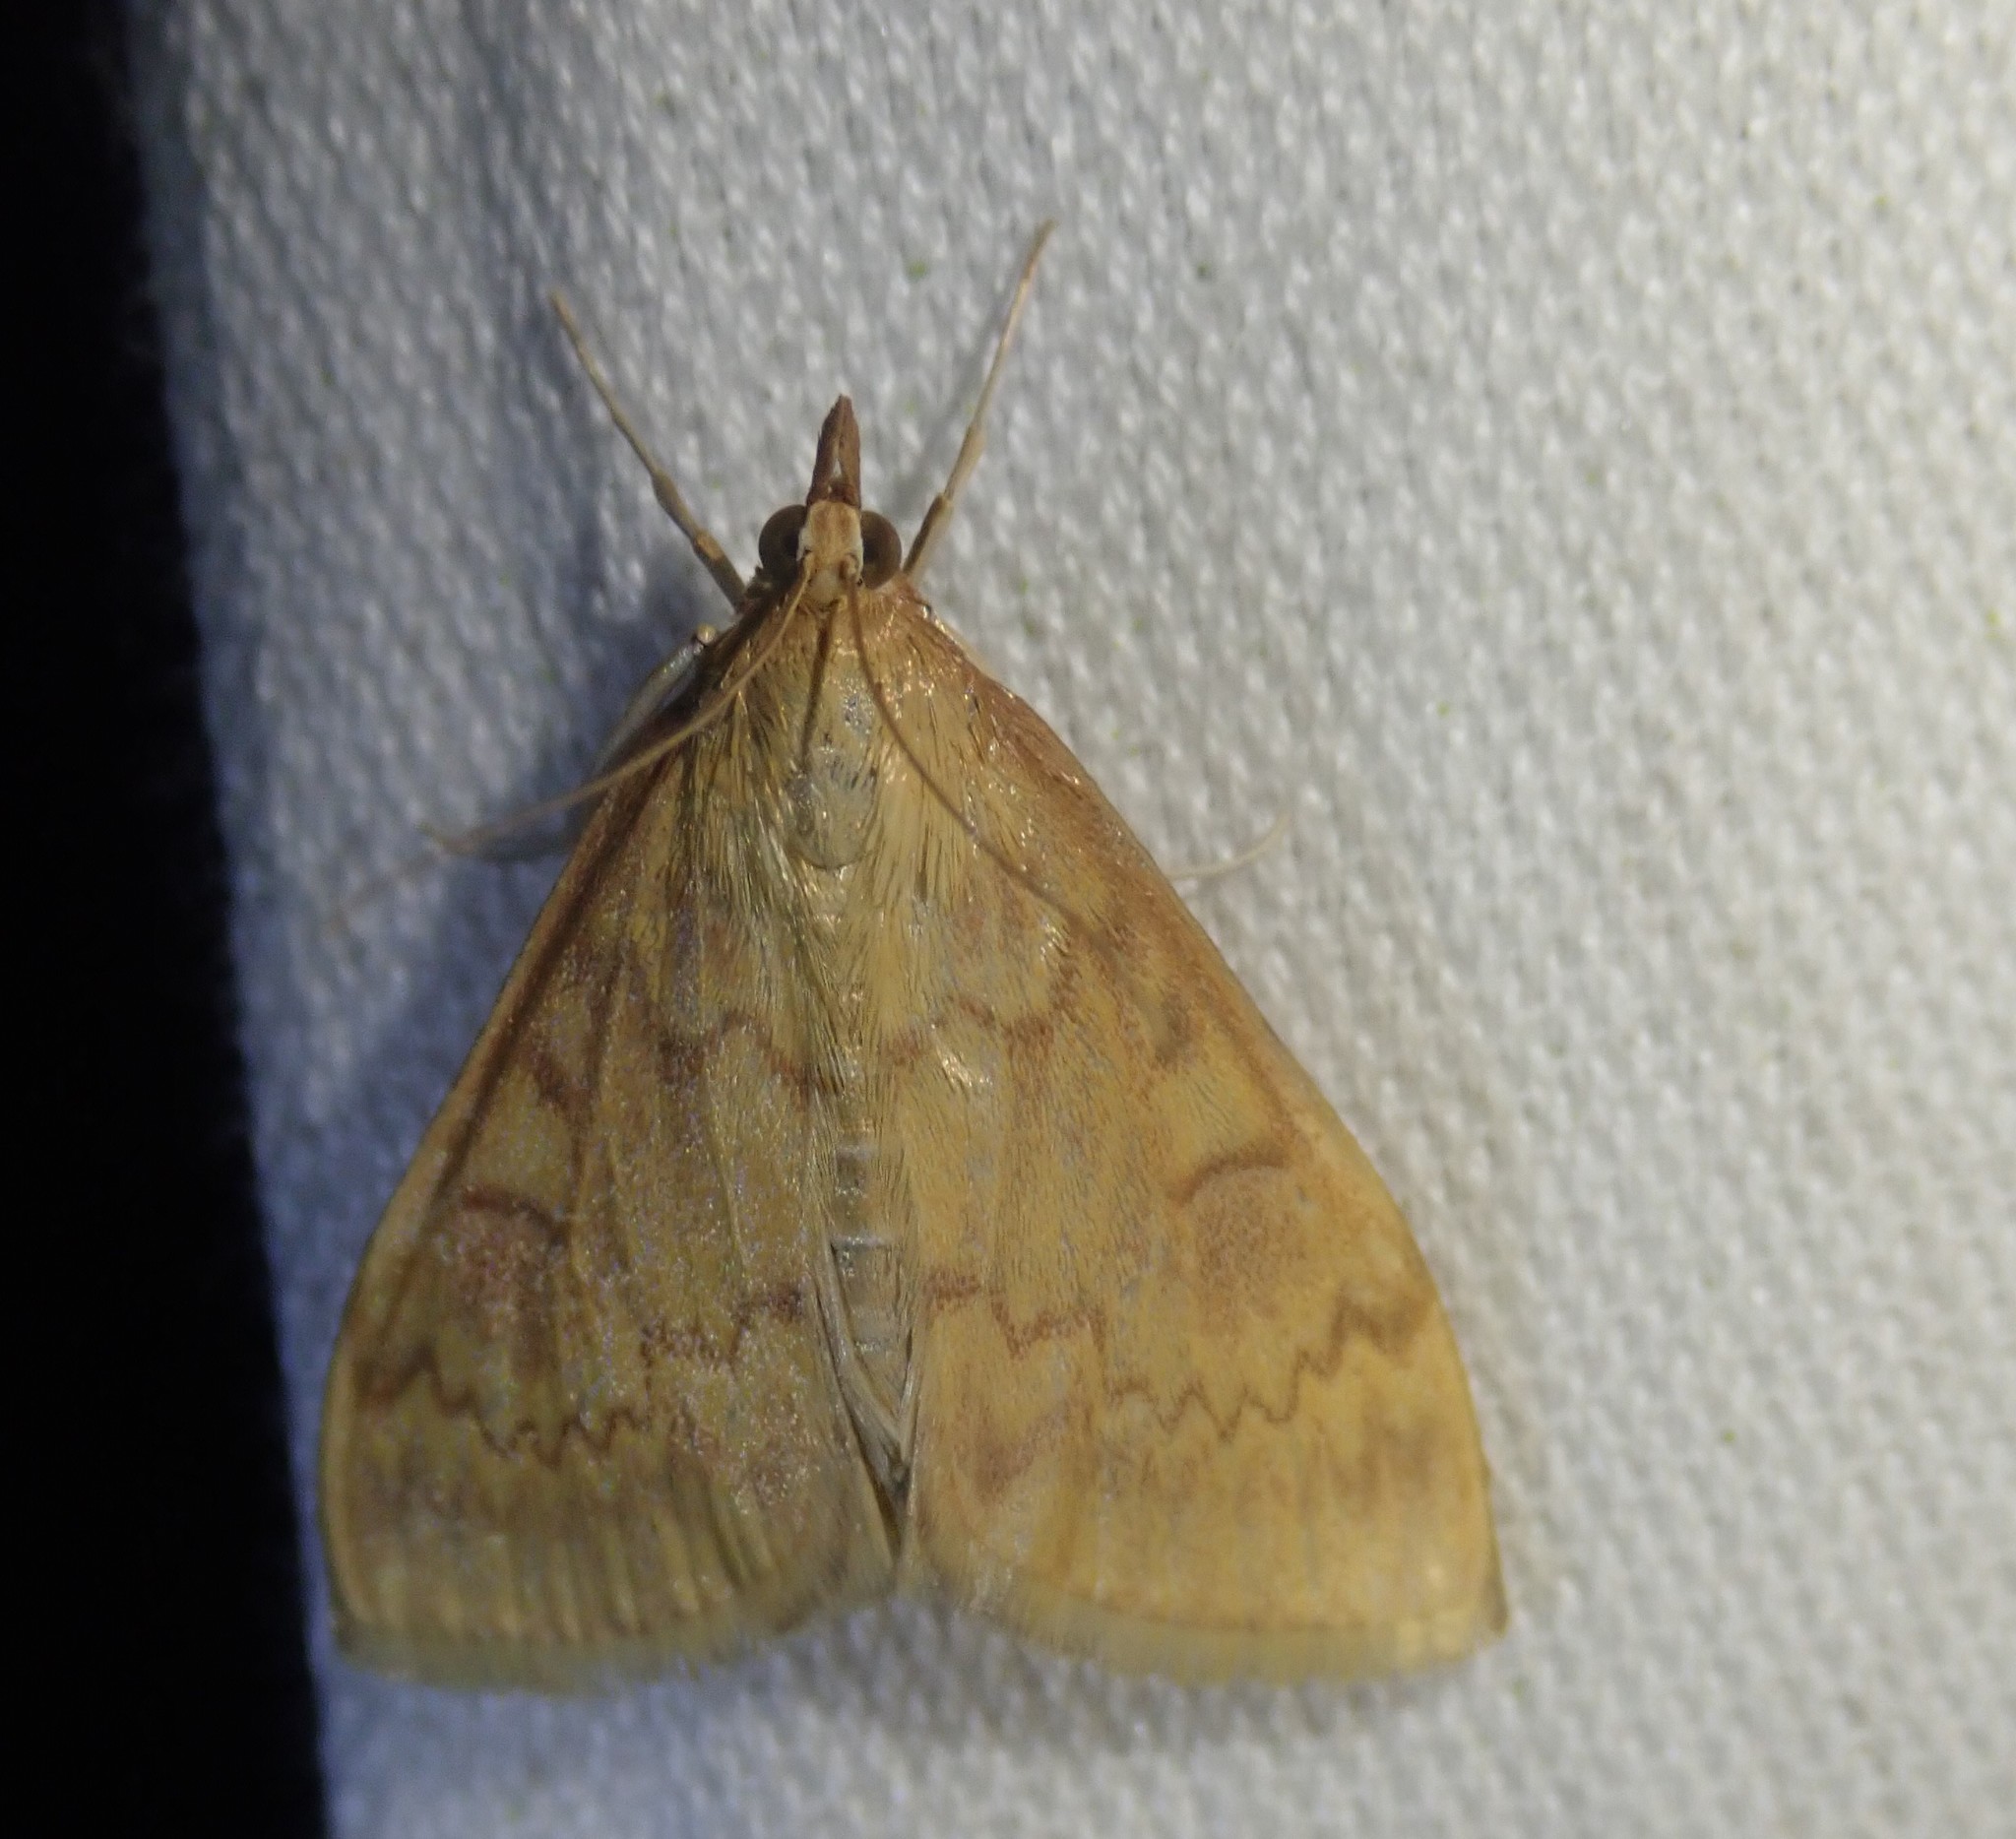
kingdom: Animalia
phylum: Arthropoda
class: Insecta
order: Lepidoptera
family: Crambidae
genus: Ostrinia
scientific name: Ostrinia nubilalis
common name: European corn borer
